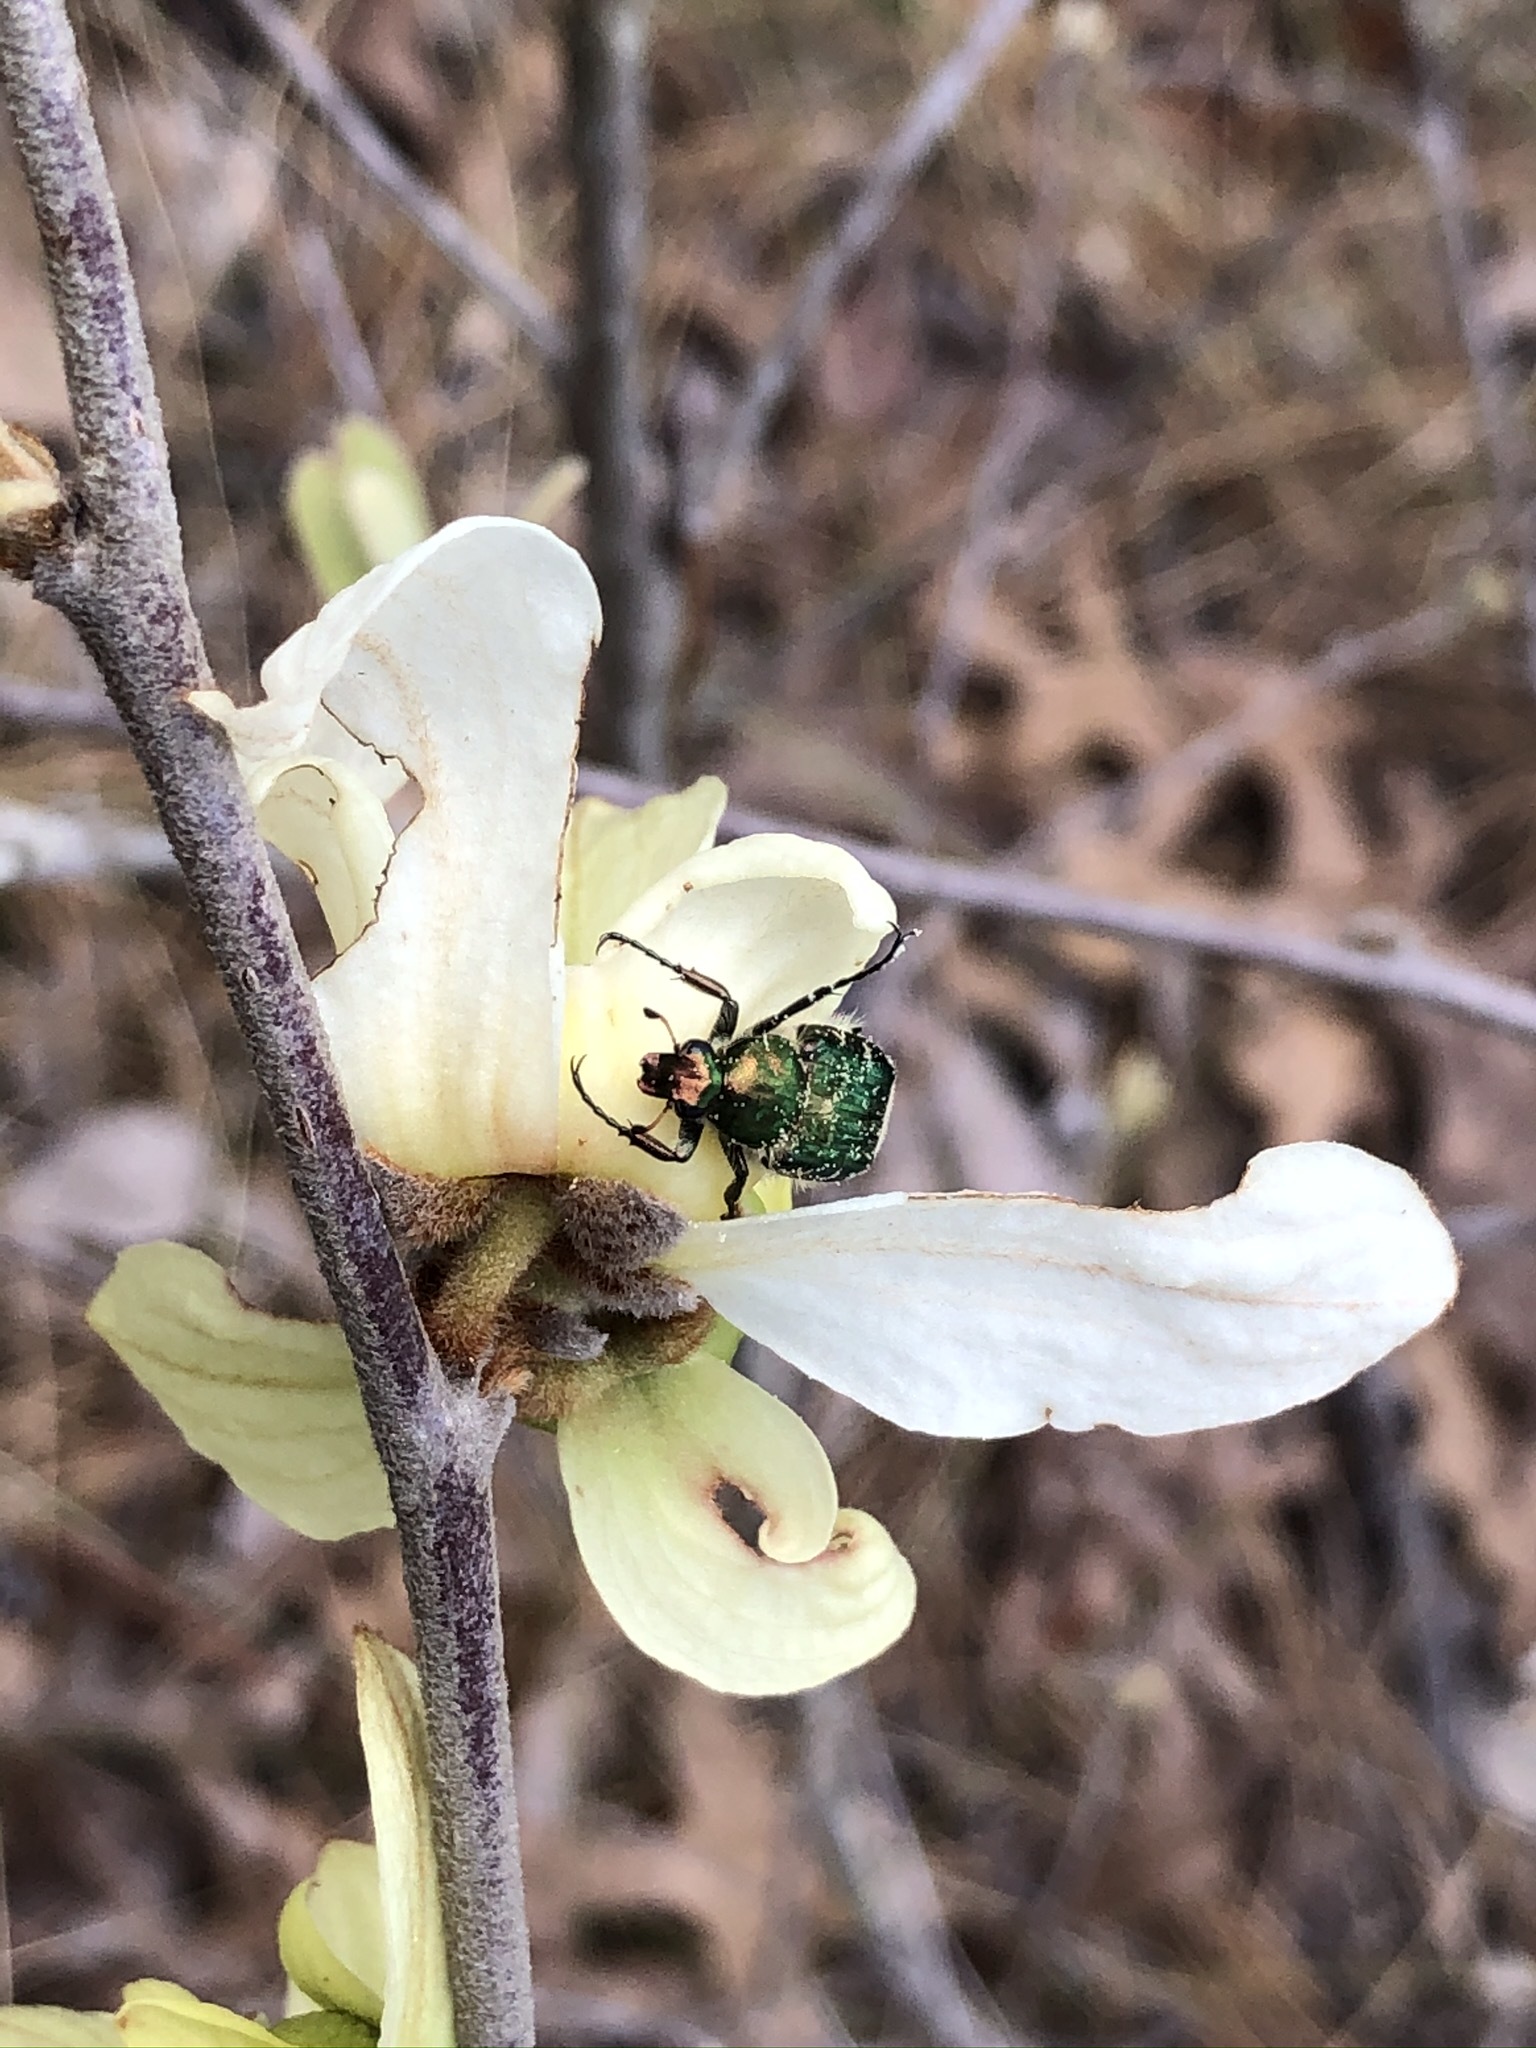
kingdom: Plantae
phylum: Tracheophyta
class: Magnoliopsida
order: Magnoliales
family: Annonaceae
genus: Asimina
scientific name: Asimina obovata
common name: Flag pawpaw
